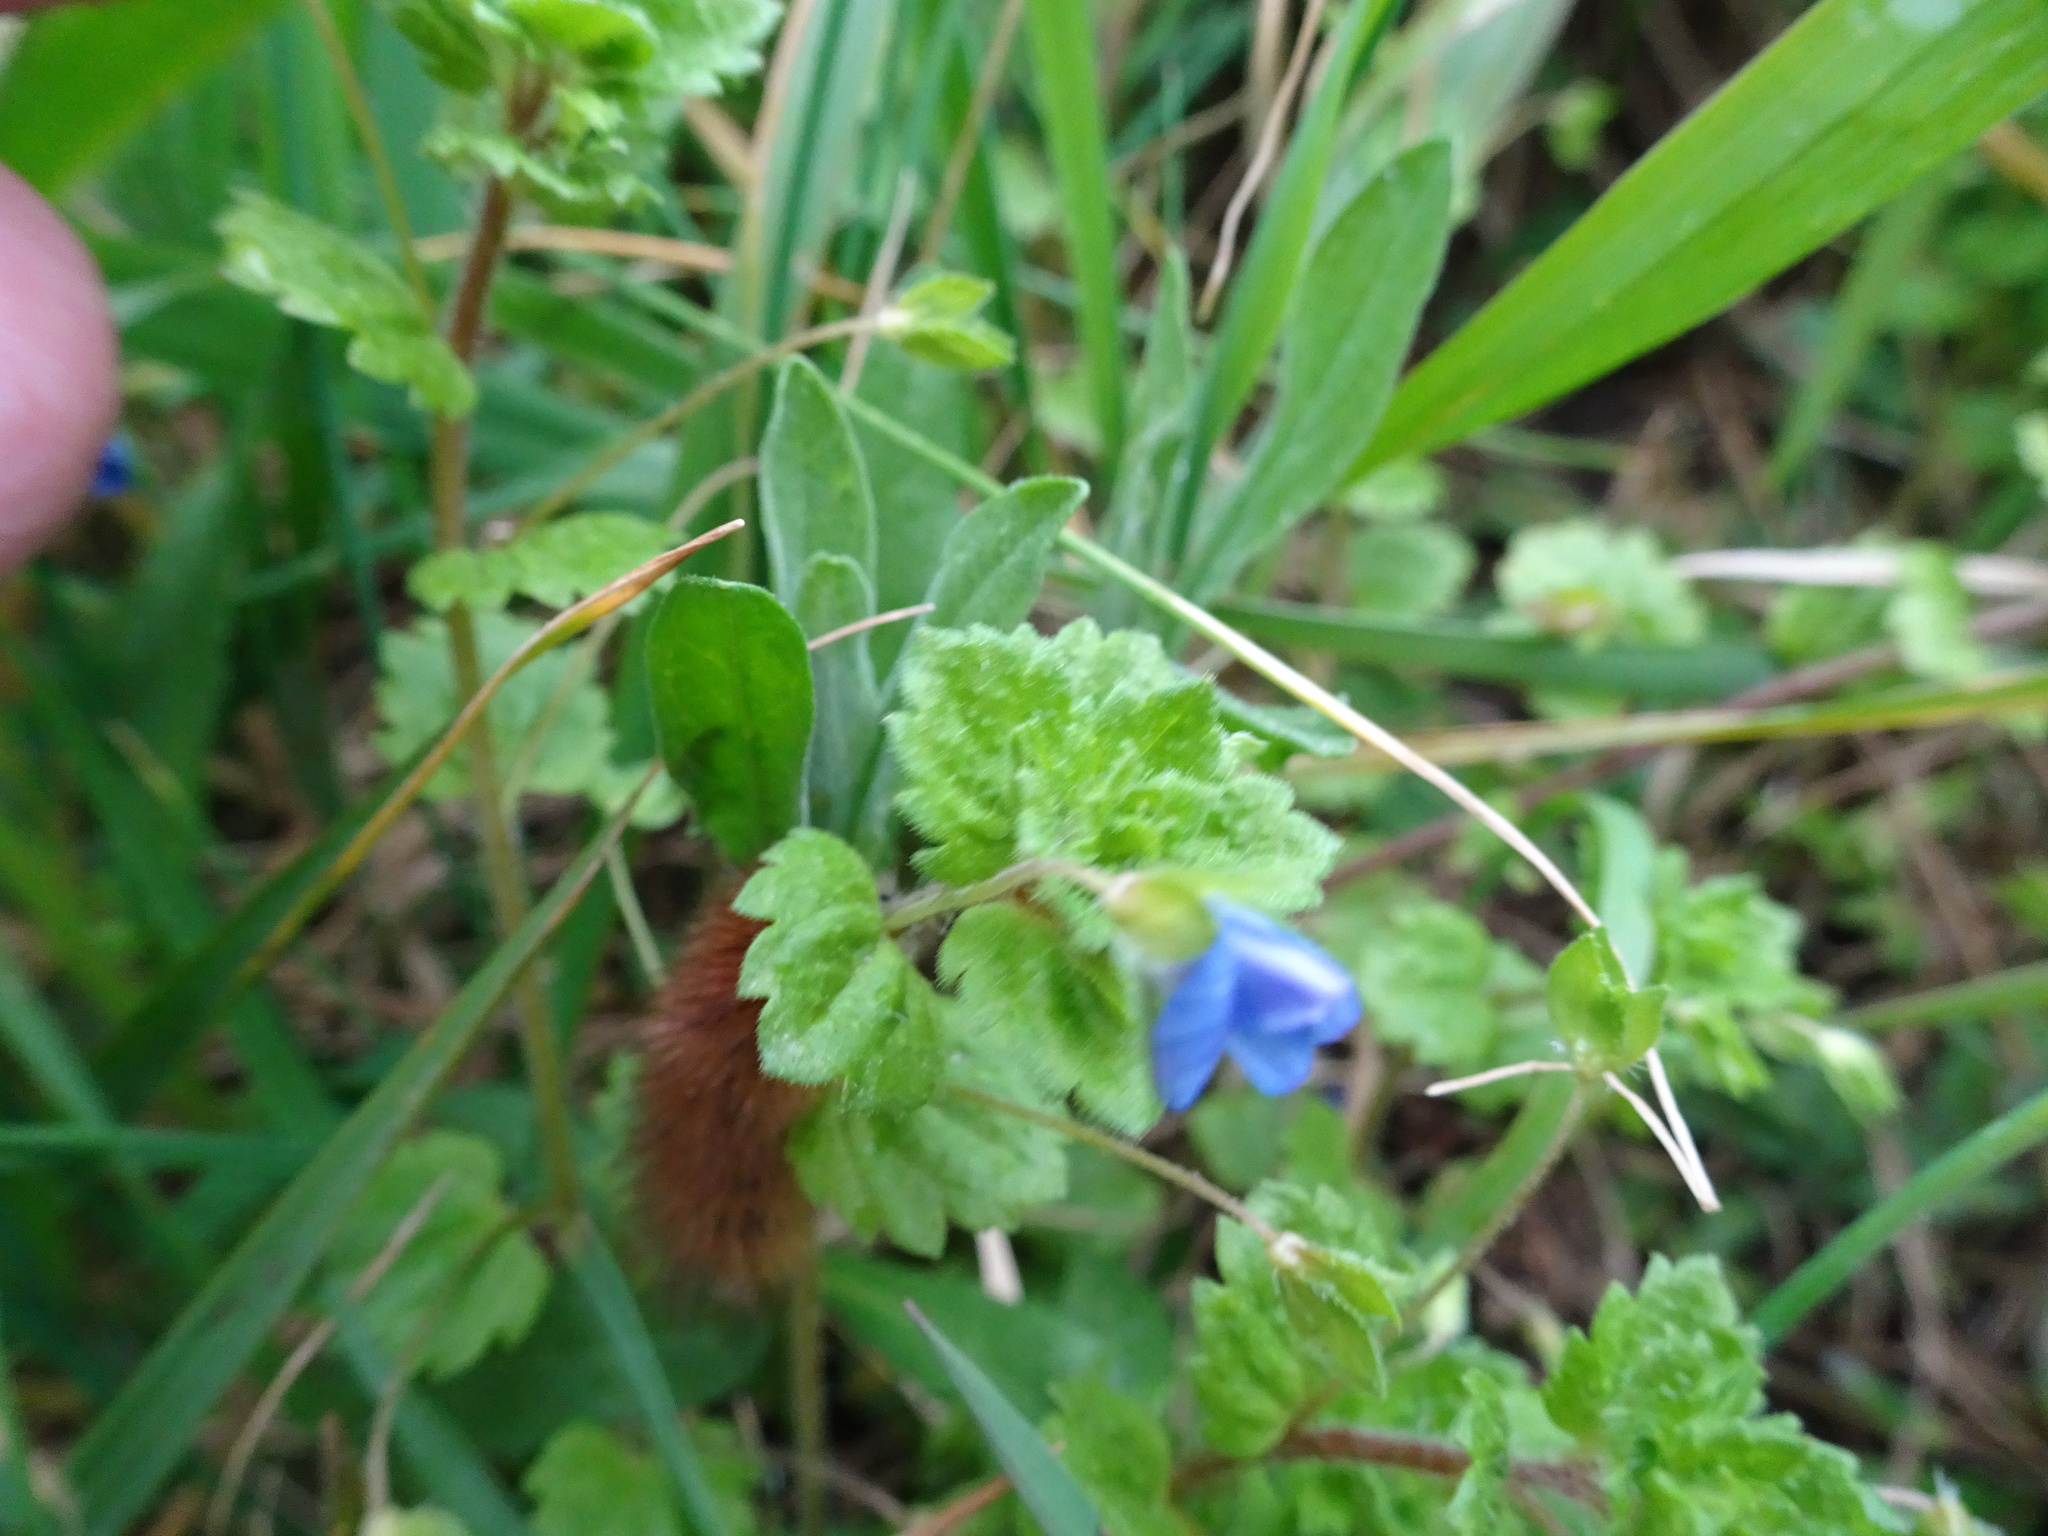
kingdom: Plantae
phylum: Tracheophyta
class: Magnoliopsida
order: Lamiales
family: Plantaginaceae
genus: Veronica
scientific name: Veronica persica
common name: Common field-speedwell
